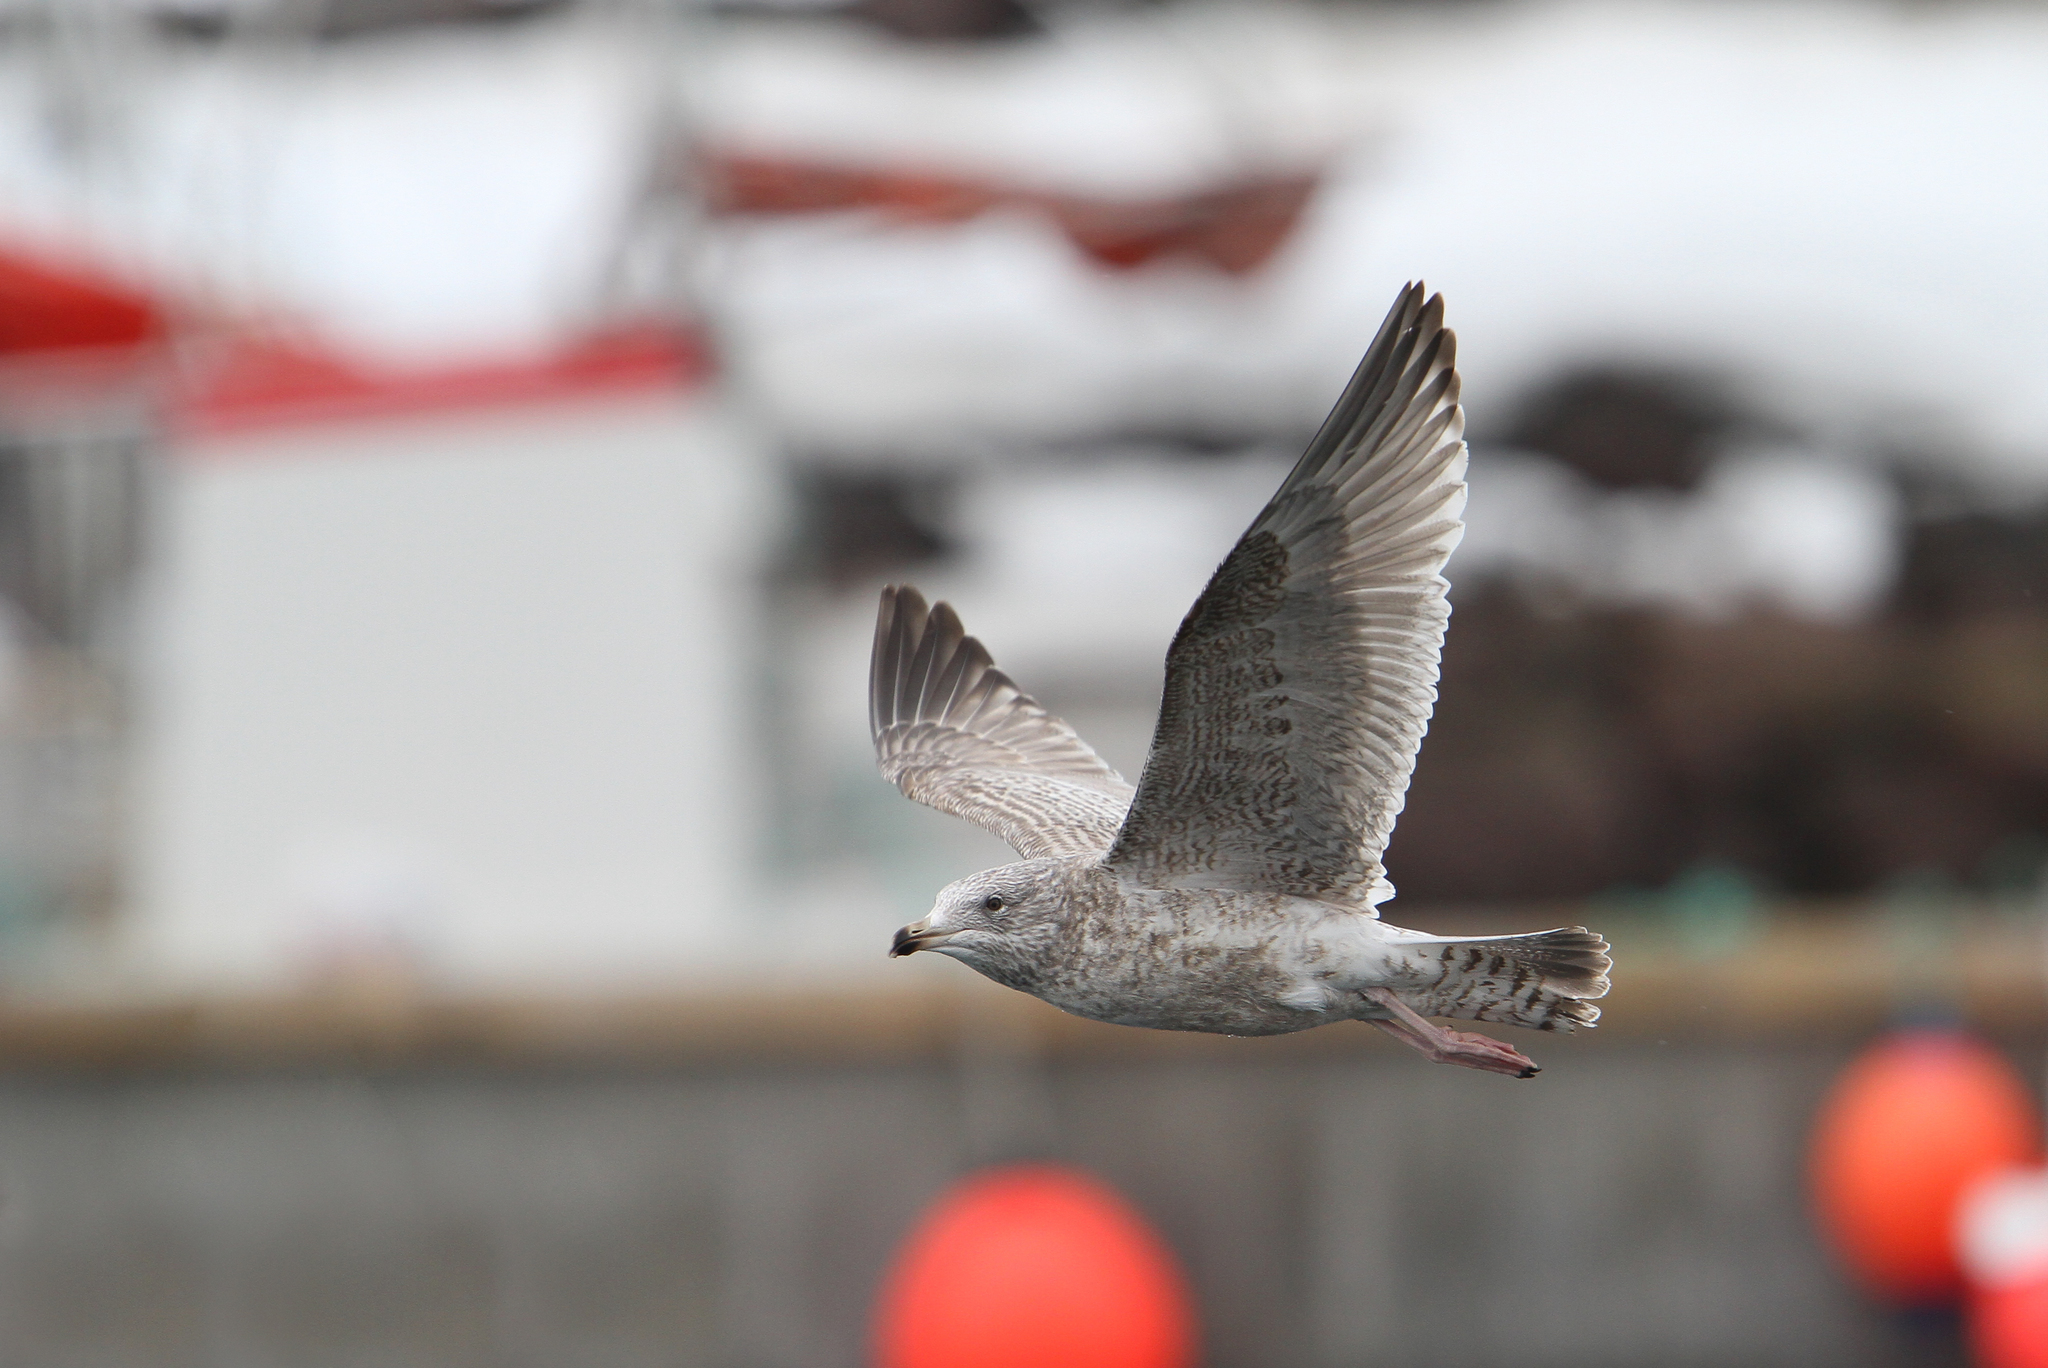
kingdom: Animalia
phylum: Chordata
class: Aves
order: Charadriiformes
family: Laridae
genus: Larus
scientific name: Larus argentatus
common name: Herring gull
